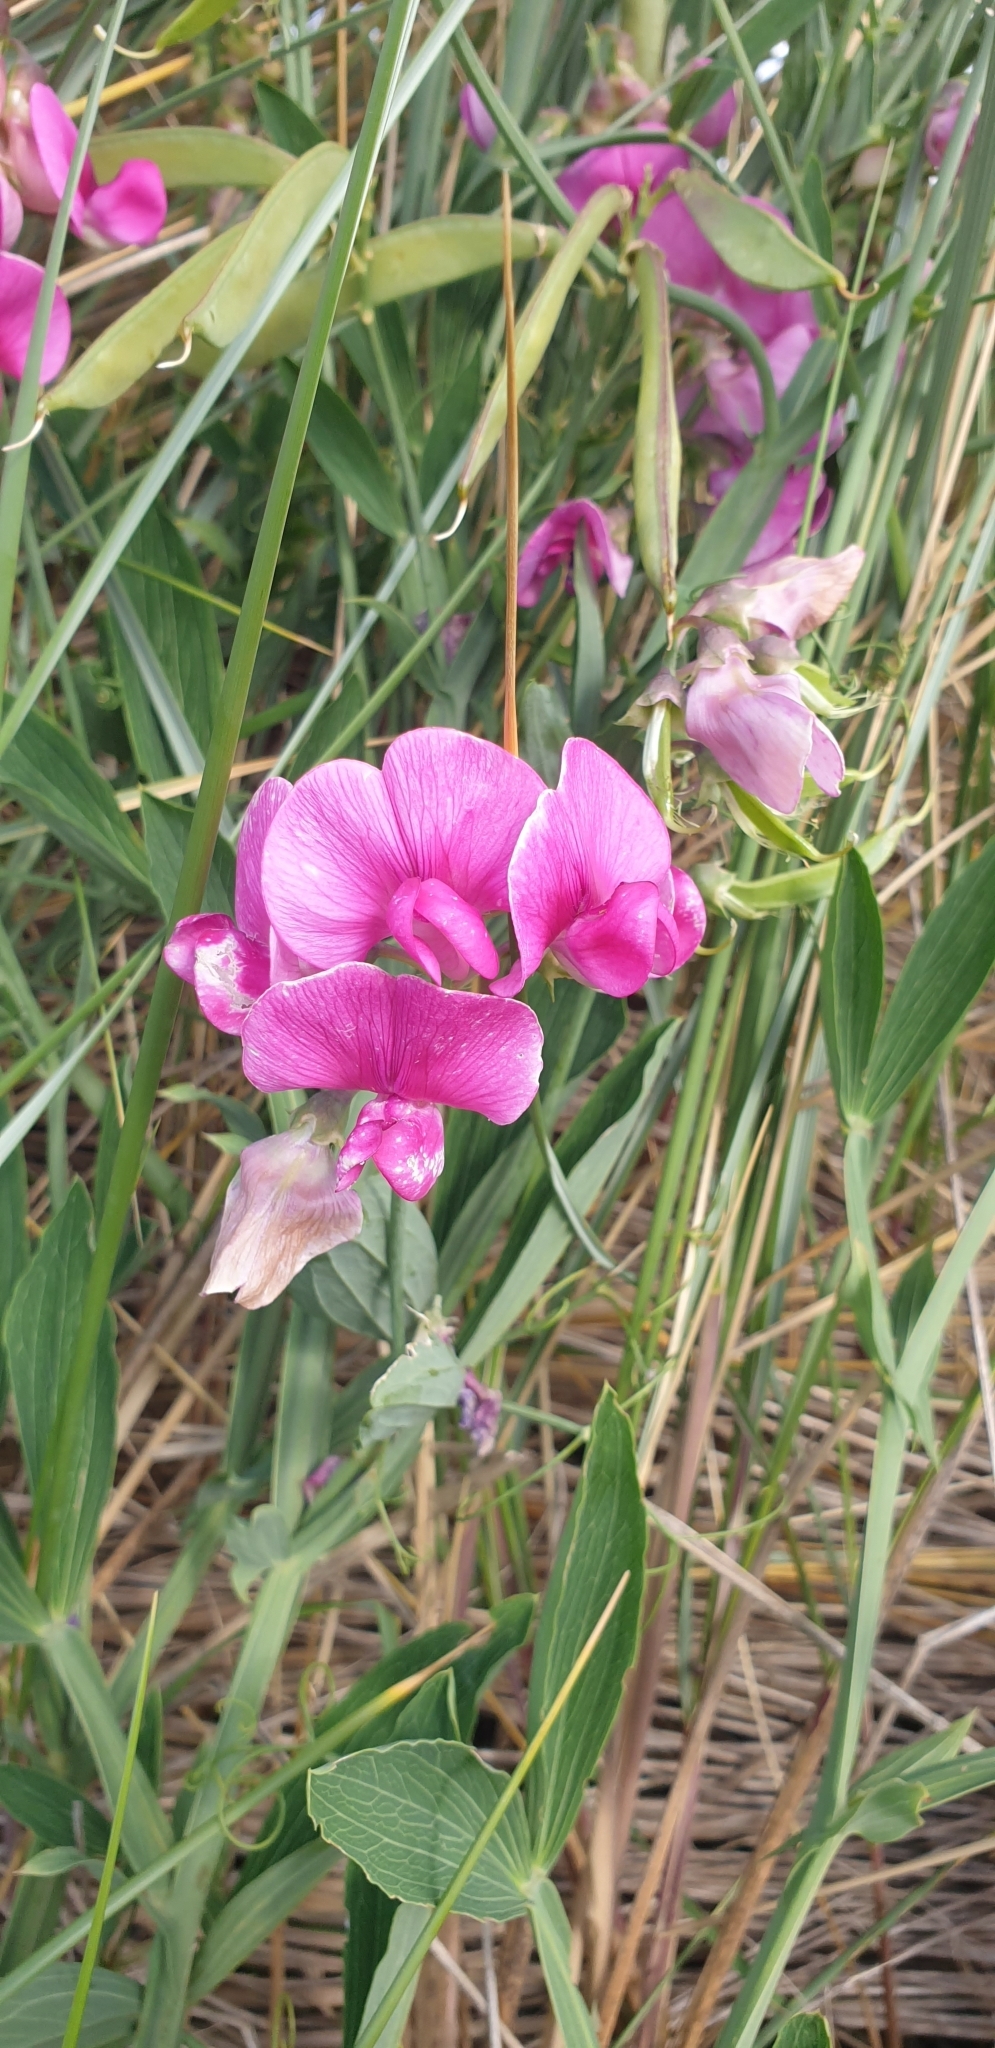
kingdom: Plantae
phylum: Tracheophyta
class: Magnoliopsida
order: Fabales
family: Fabaceae
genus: Lathyrus
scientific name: Lathyrus latifolius
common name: Perennial pea
